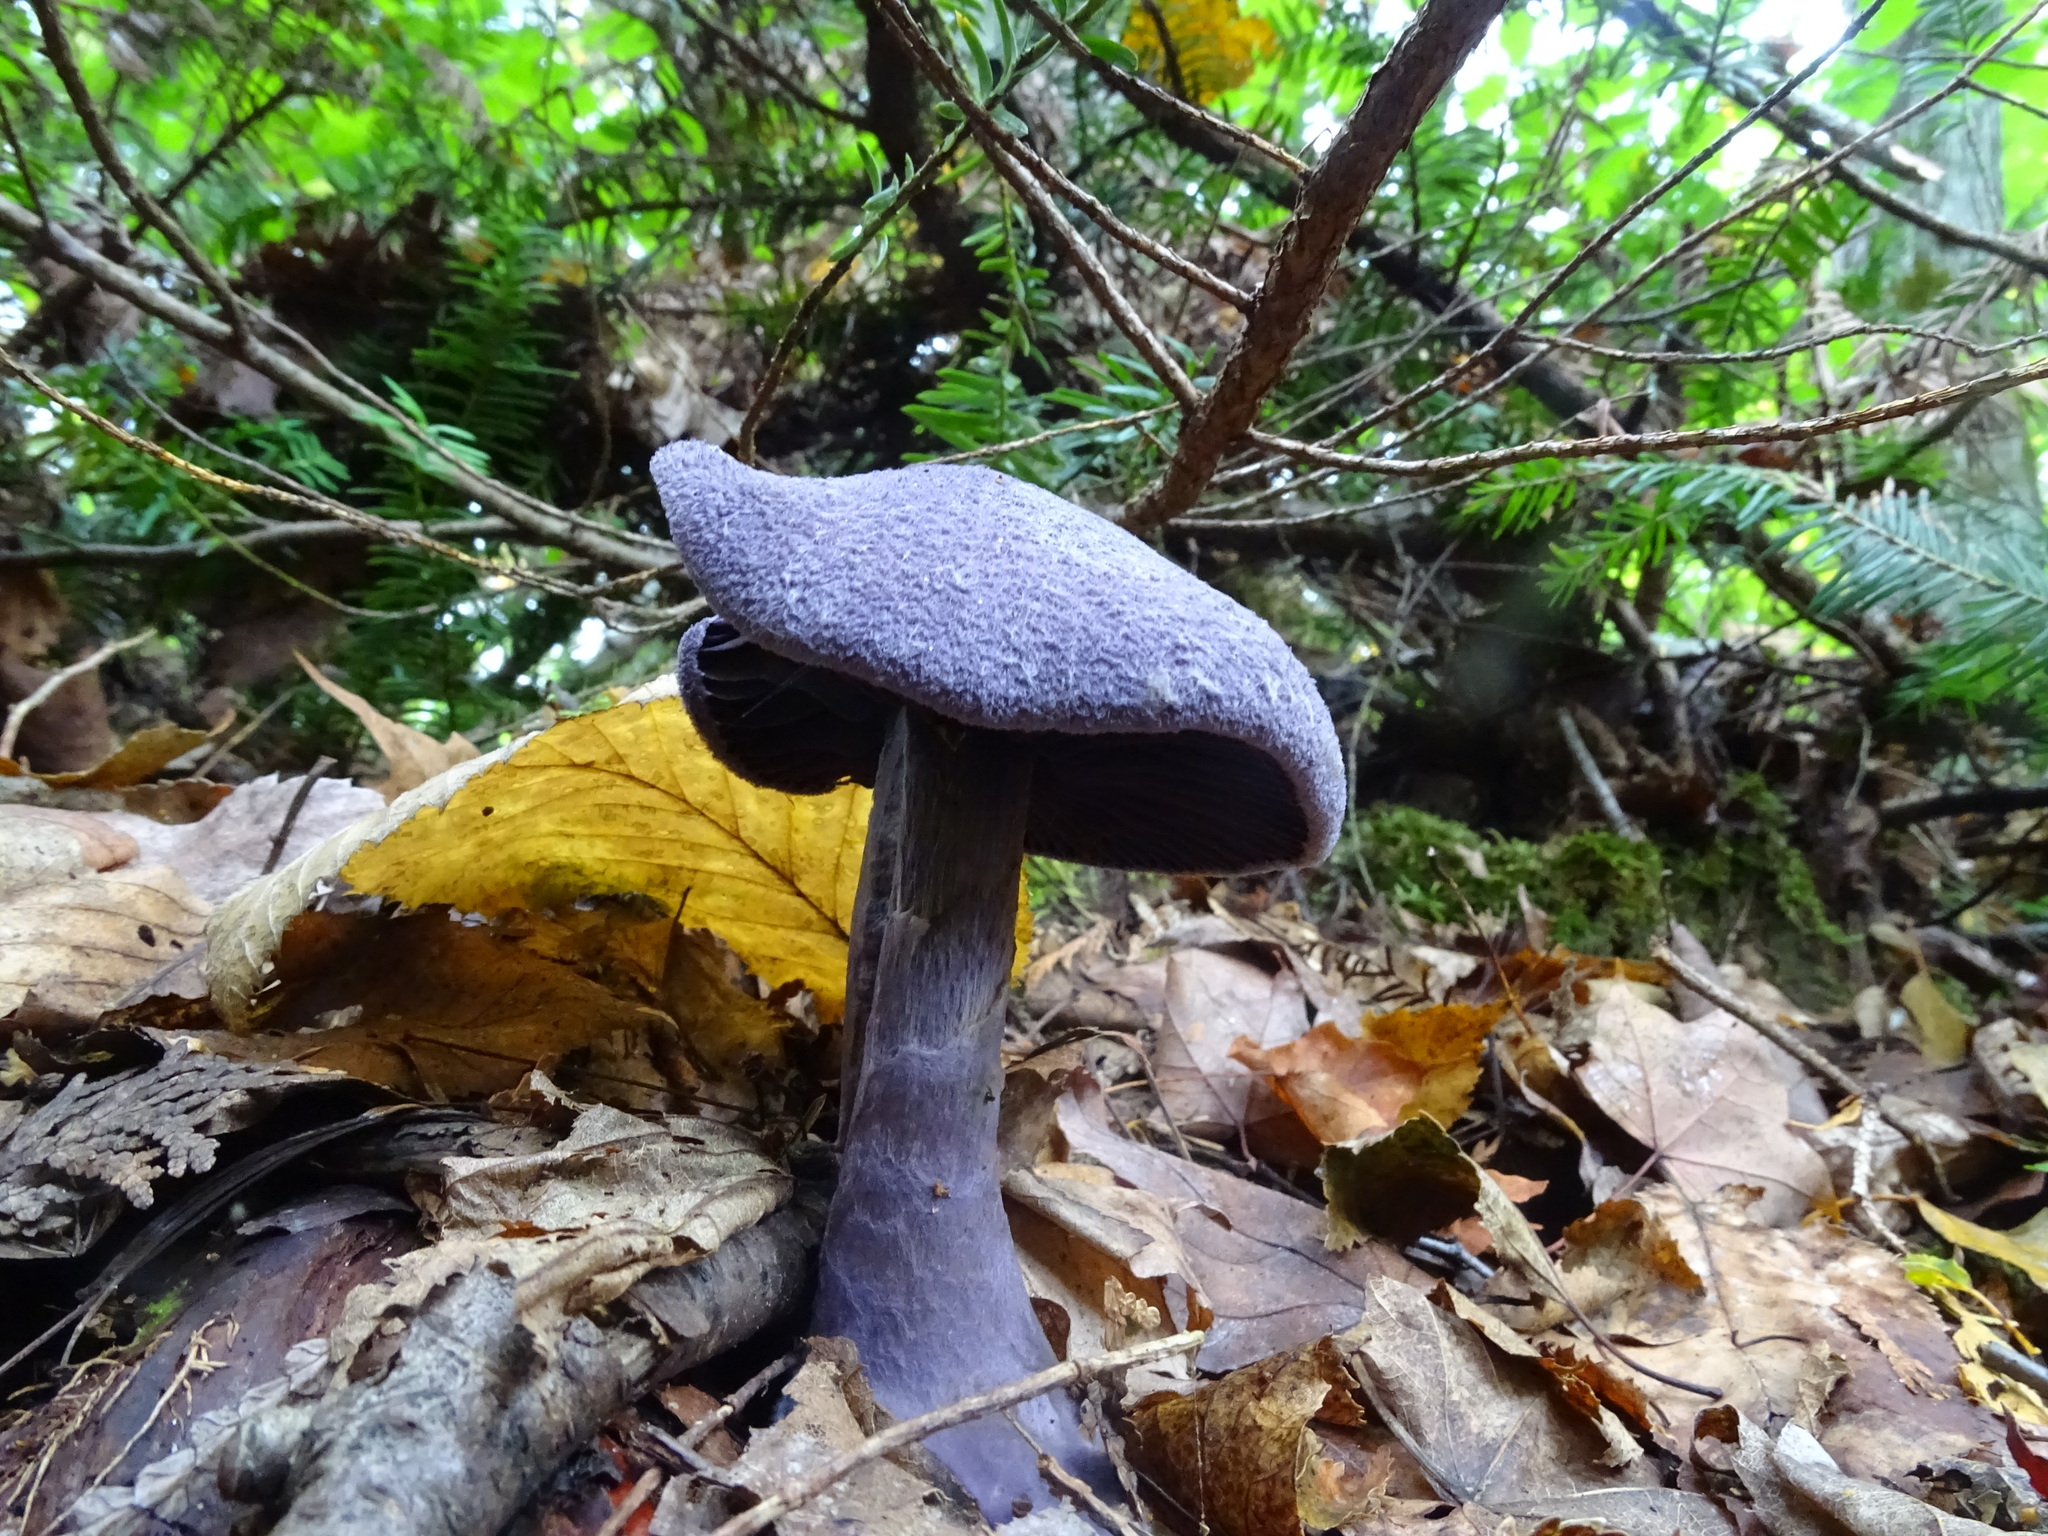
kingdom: Fungi
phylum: Basidiomycota
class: Agaricomycetes
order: Agaricales
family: Cortinariaceae
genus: Cortinarius
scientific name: Cortinarius violaceus
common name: Violet webcap
